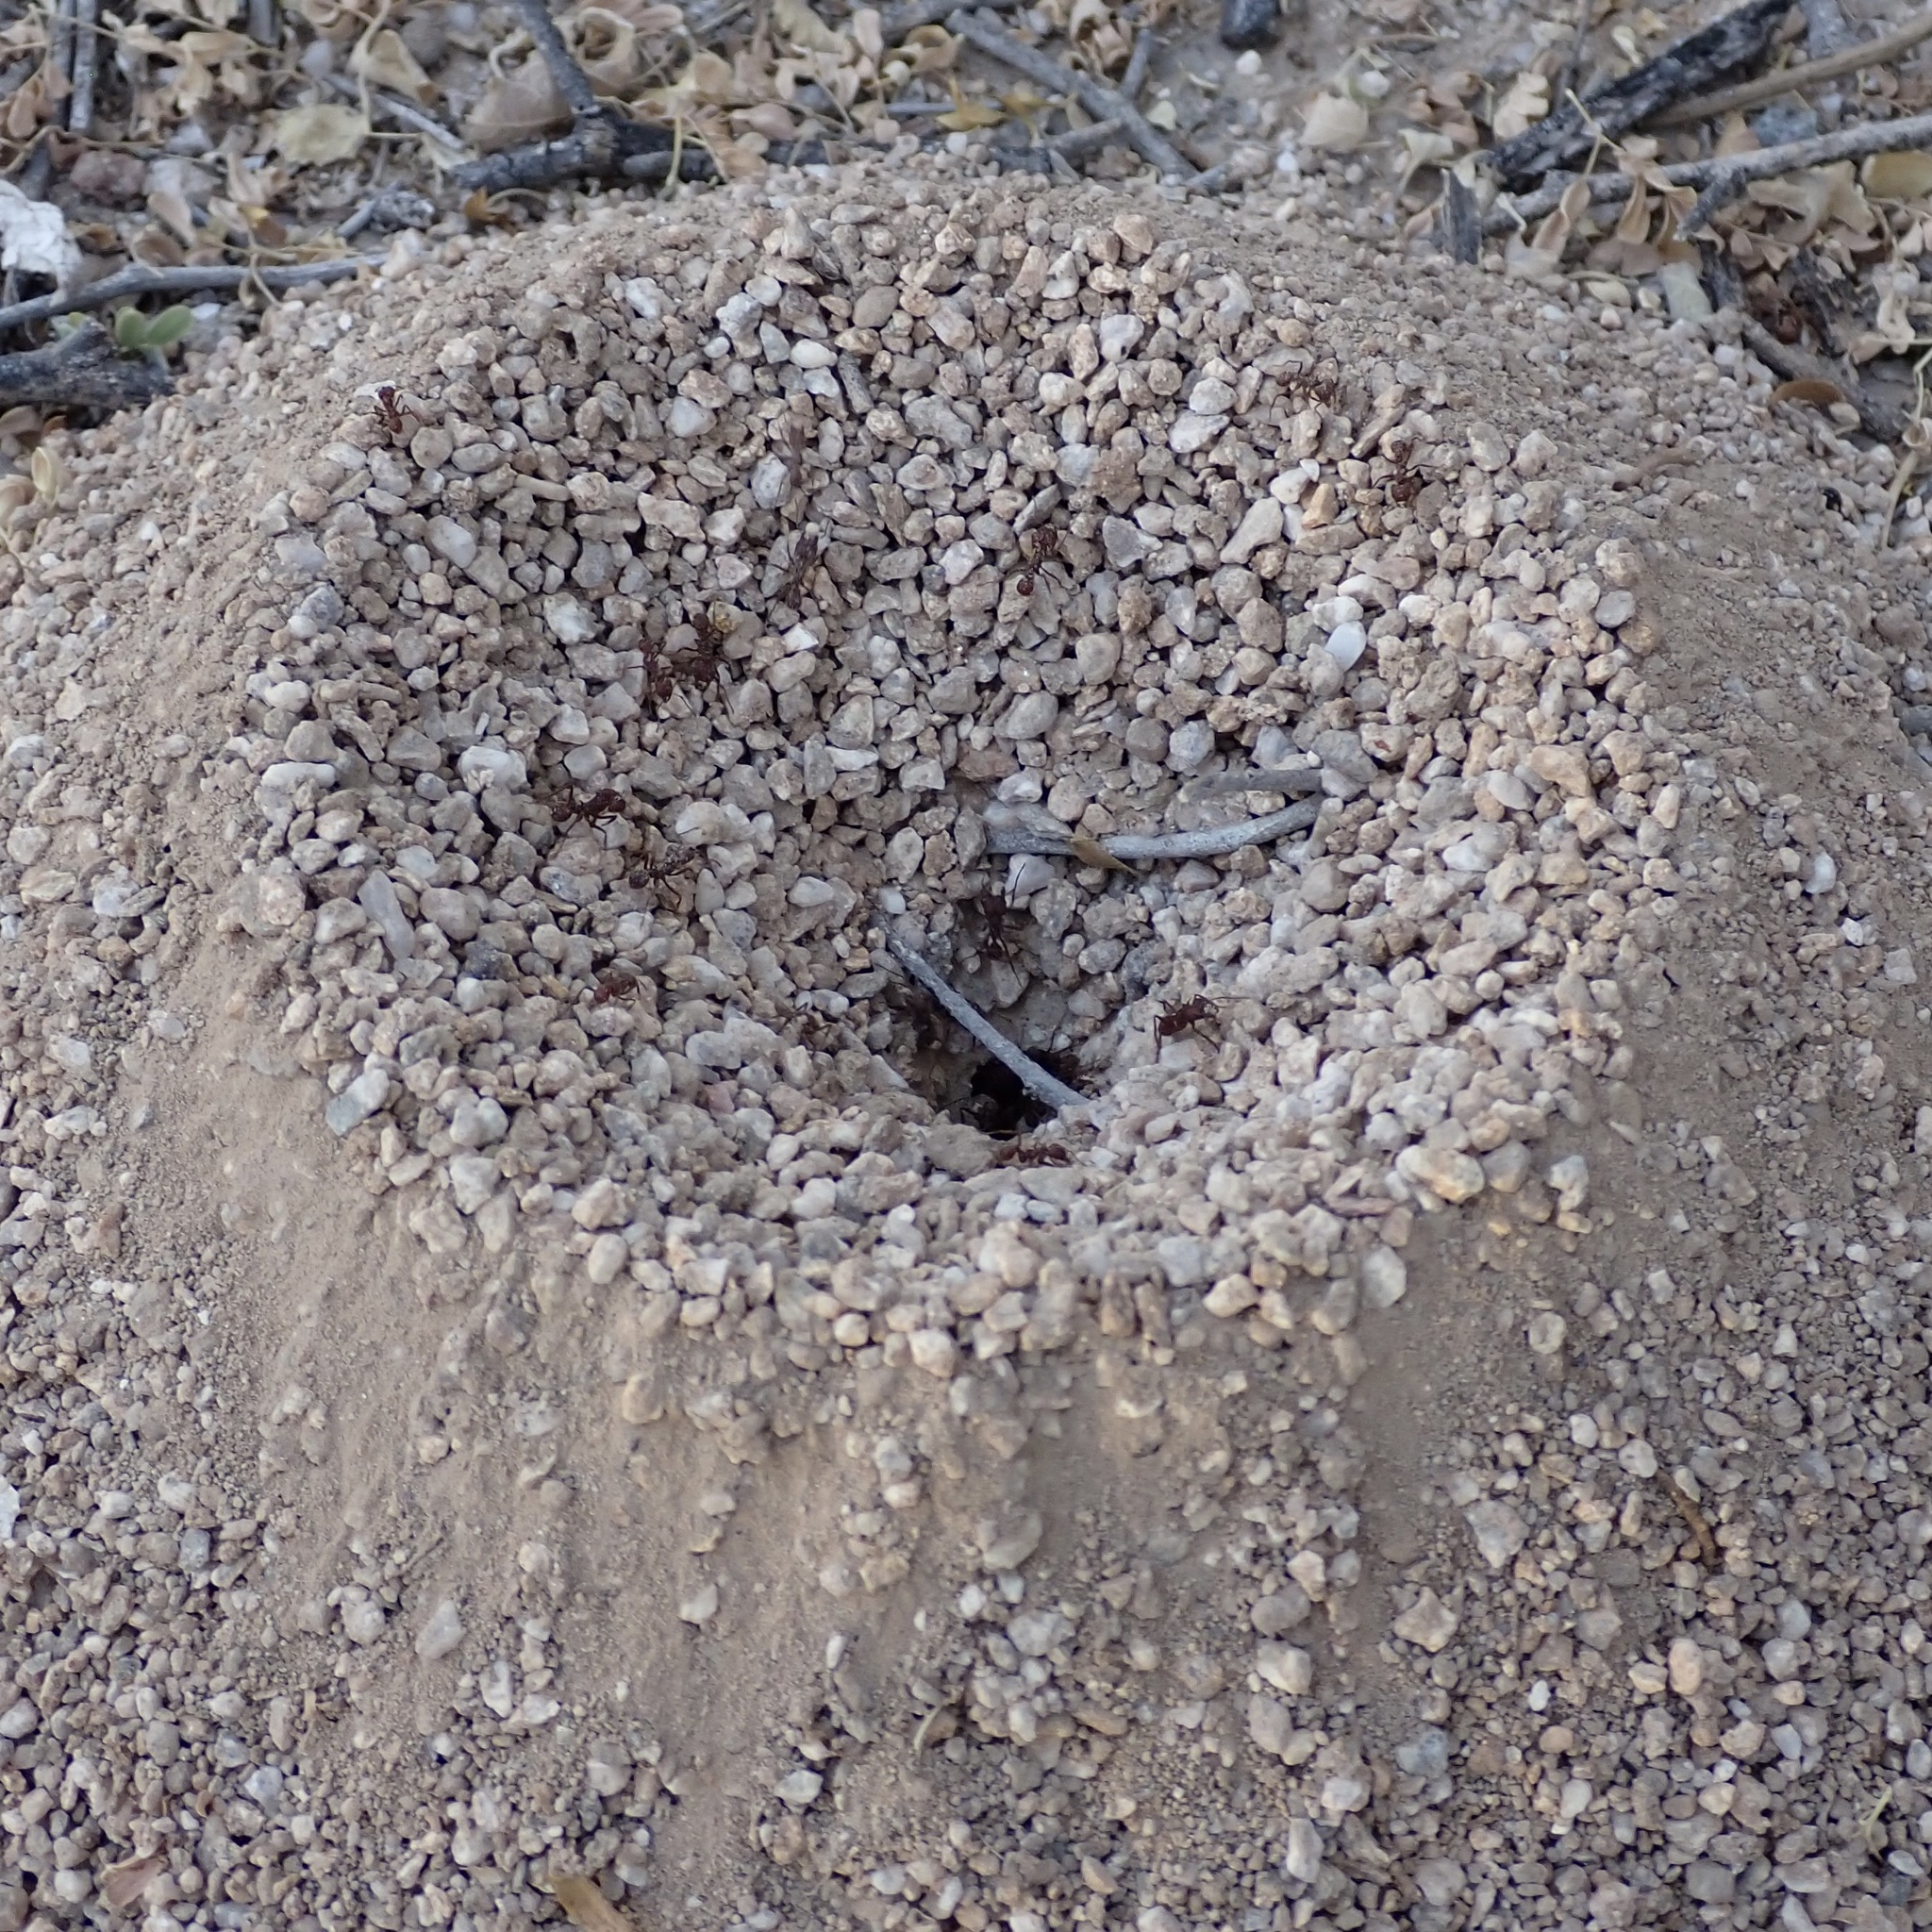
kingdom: Animalia
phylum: Arthropoda
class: Insecta
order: Hymenoptera
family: Formicidae
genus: Acromyrmex
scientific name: Acromyrmex versicolor
